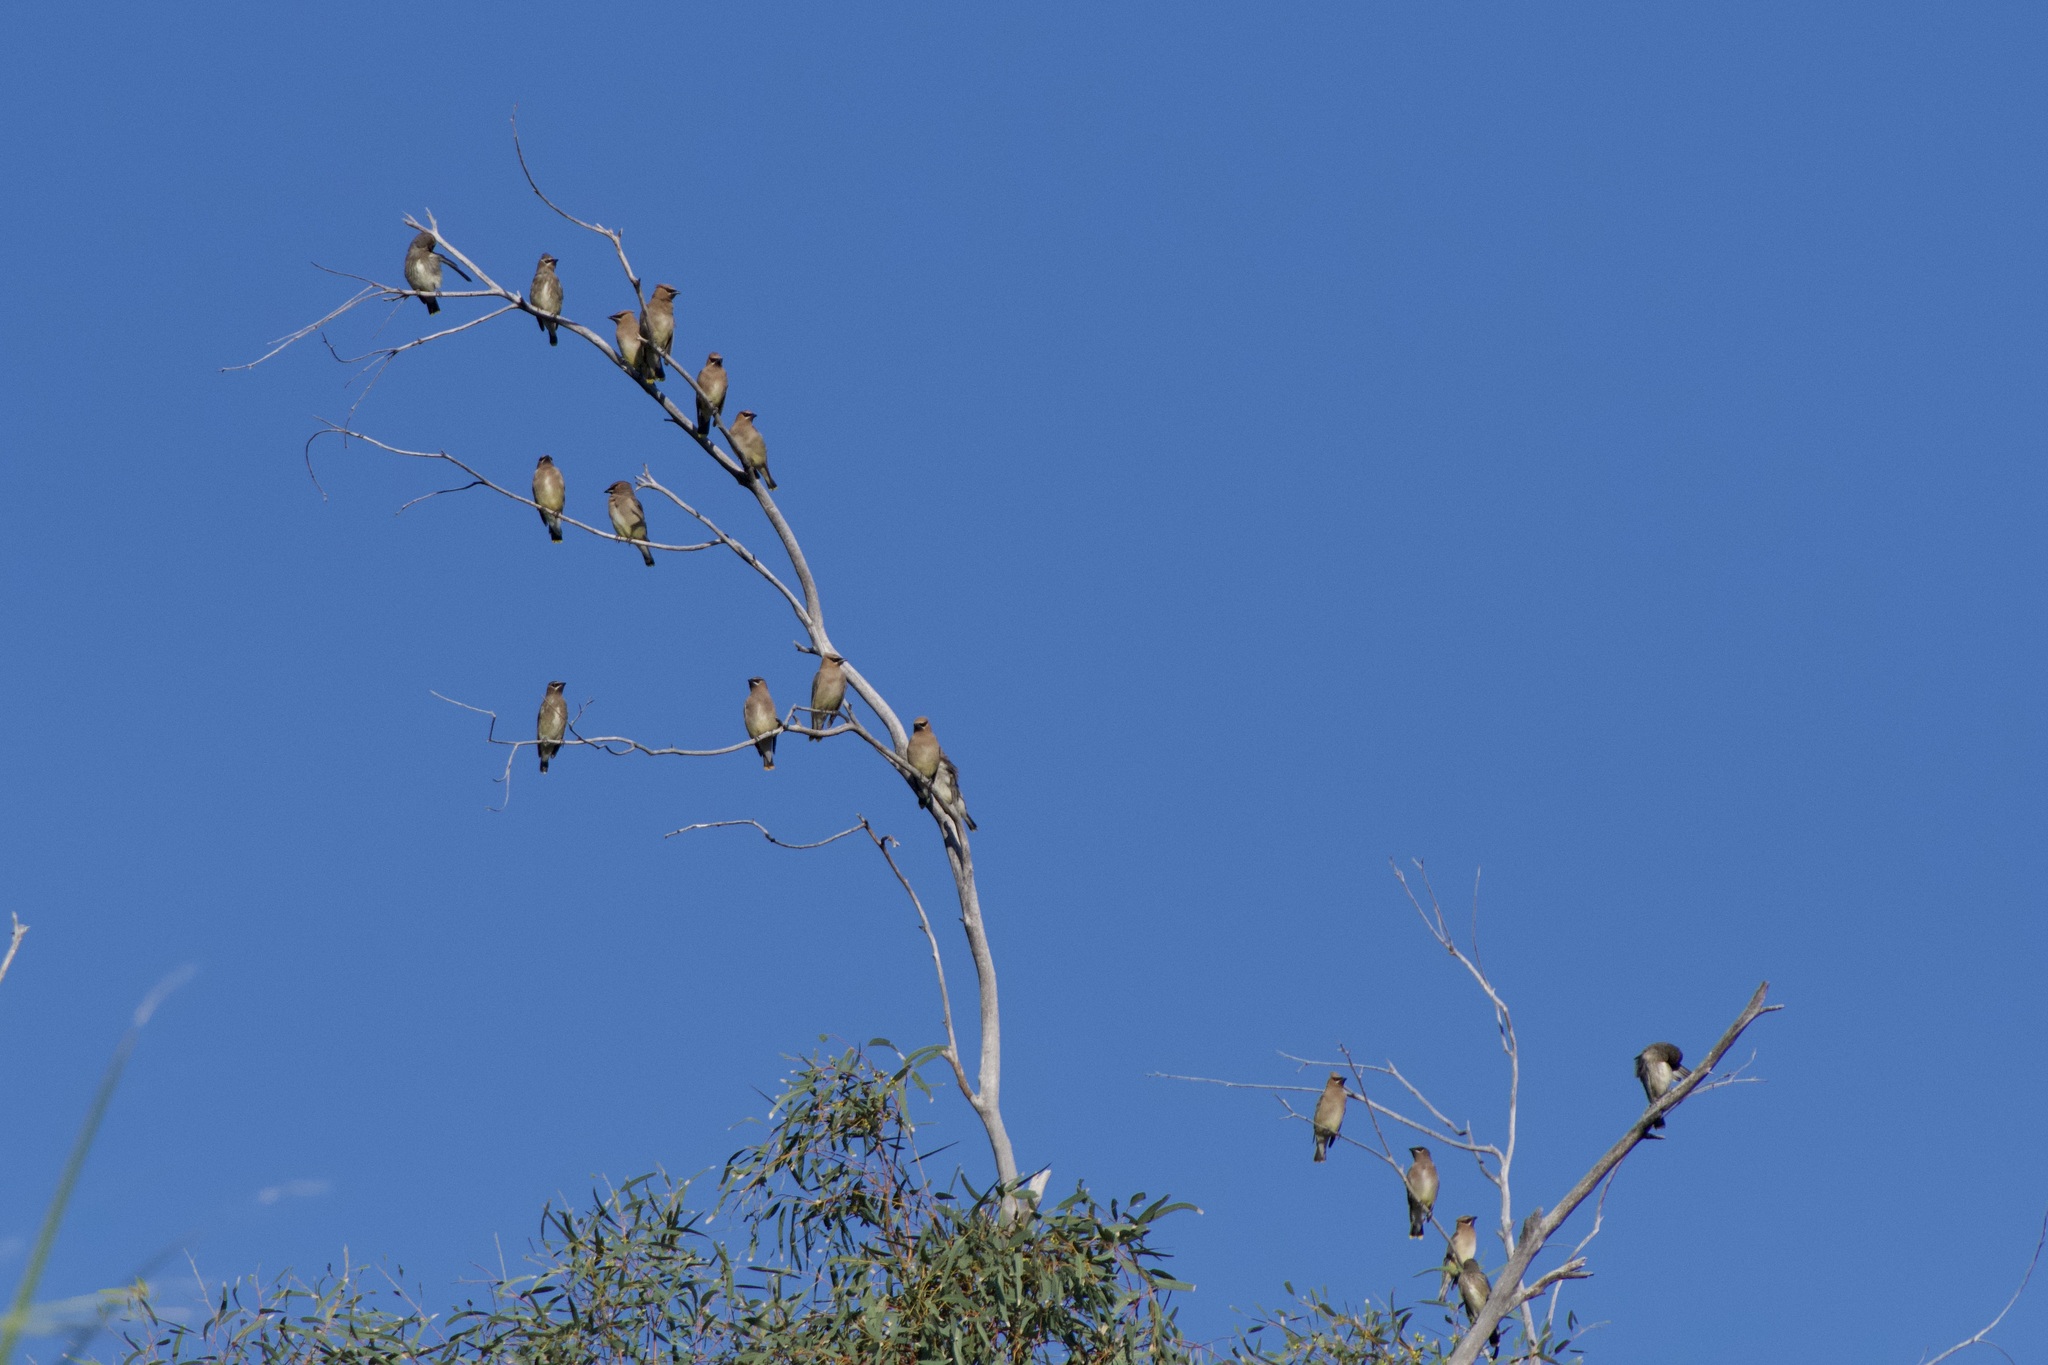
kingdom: Animalia
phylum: Chordata
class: Aves
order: Passeriformes
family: Bombycillidae
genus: Bombycilla
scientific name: Bombycilla cedrorum
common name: Cedar waxwing
